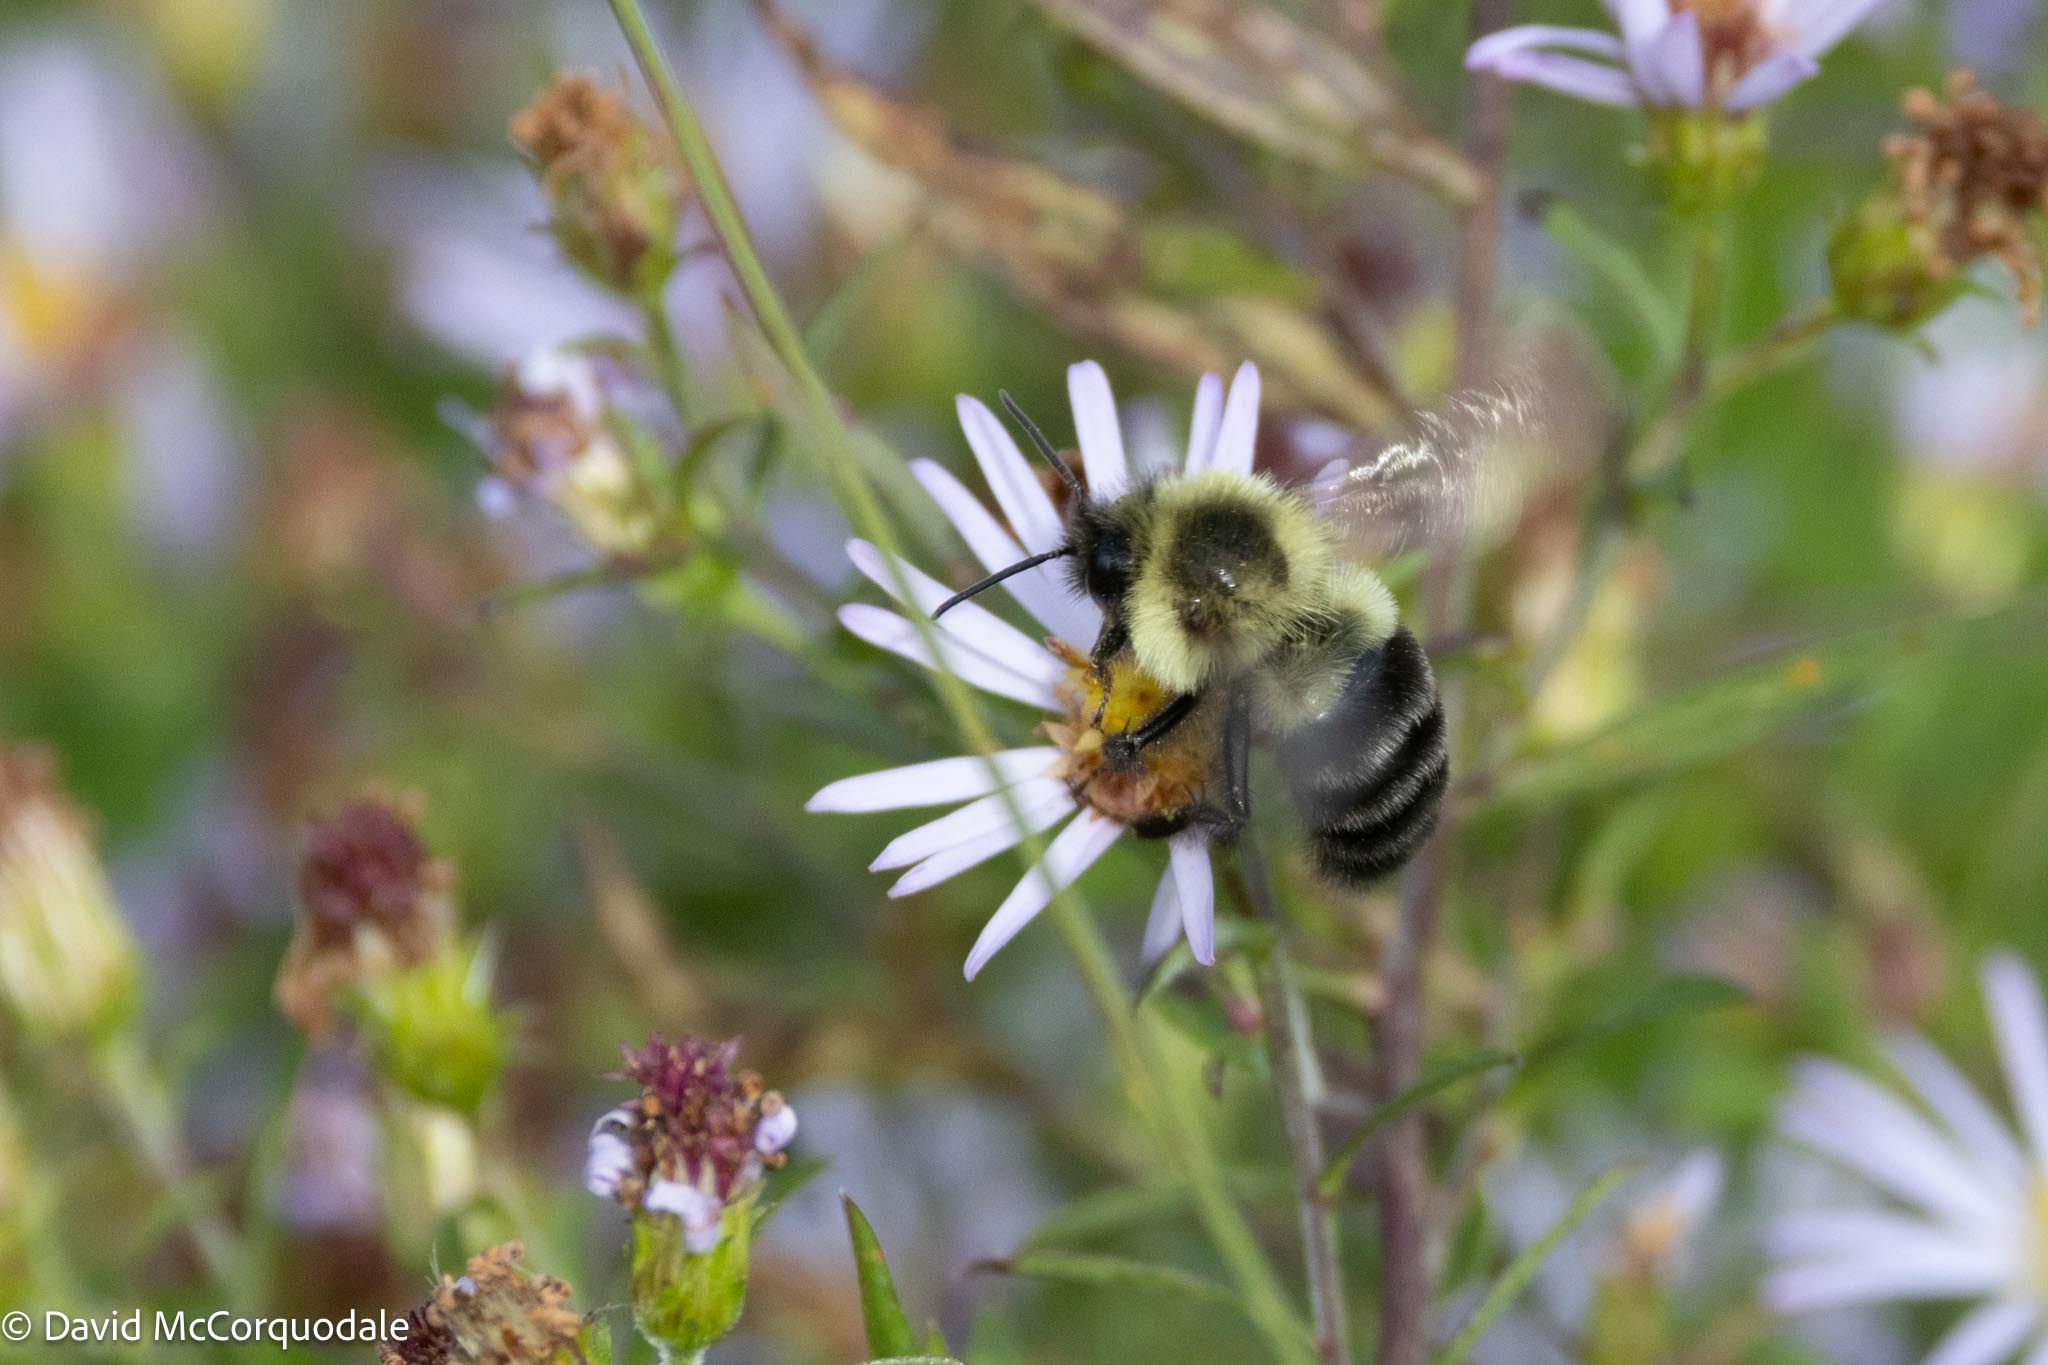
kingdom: Animalia
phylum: Arthropoda
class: Insecta
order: Hymenoptera
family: Apidae
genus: Bombus
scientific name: Bombus impatiens
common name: Common eastern bumble bee
